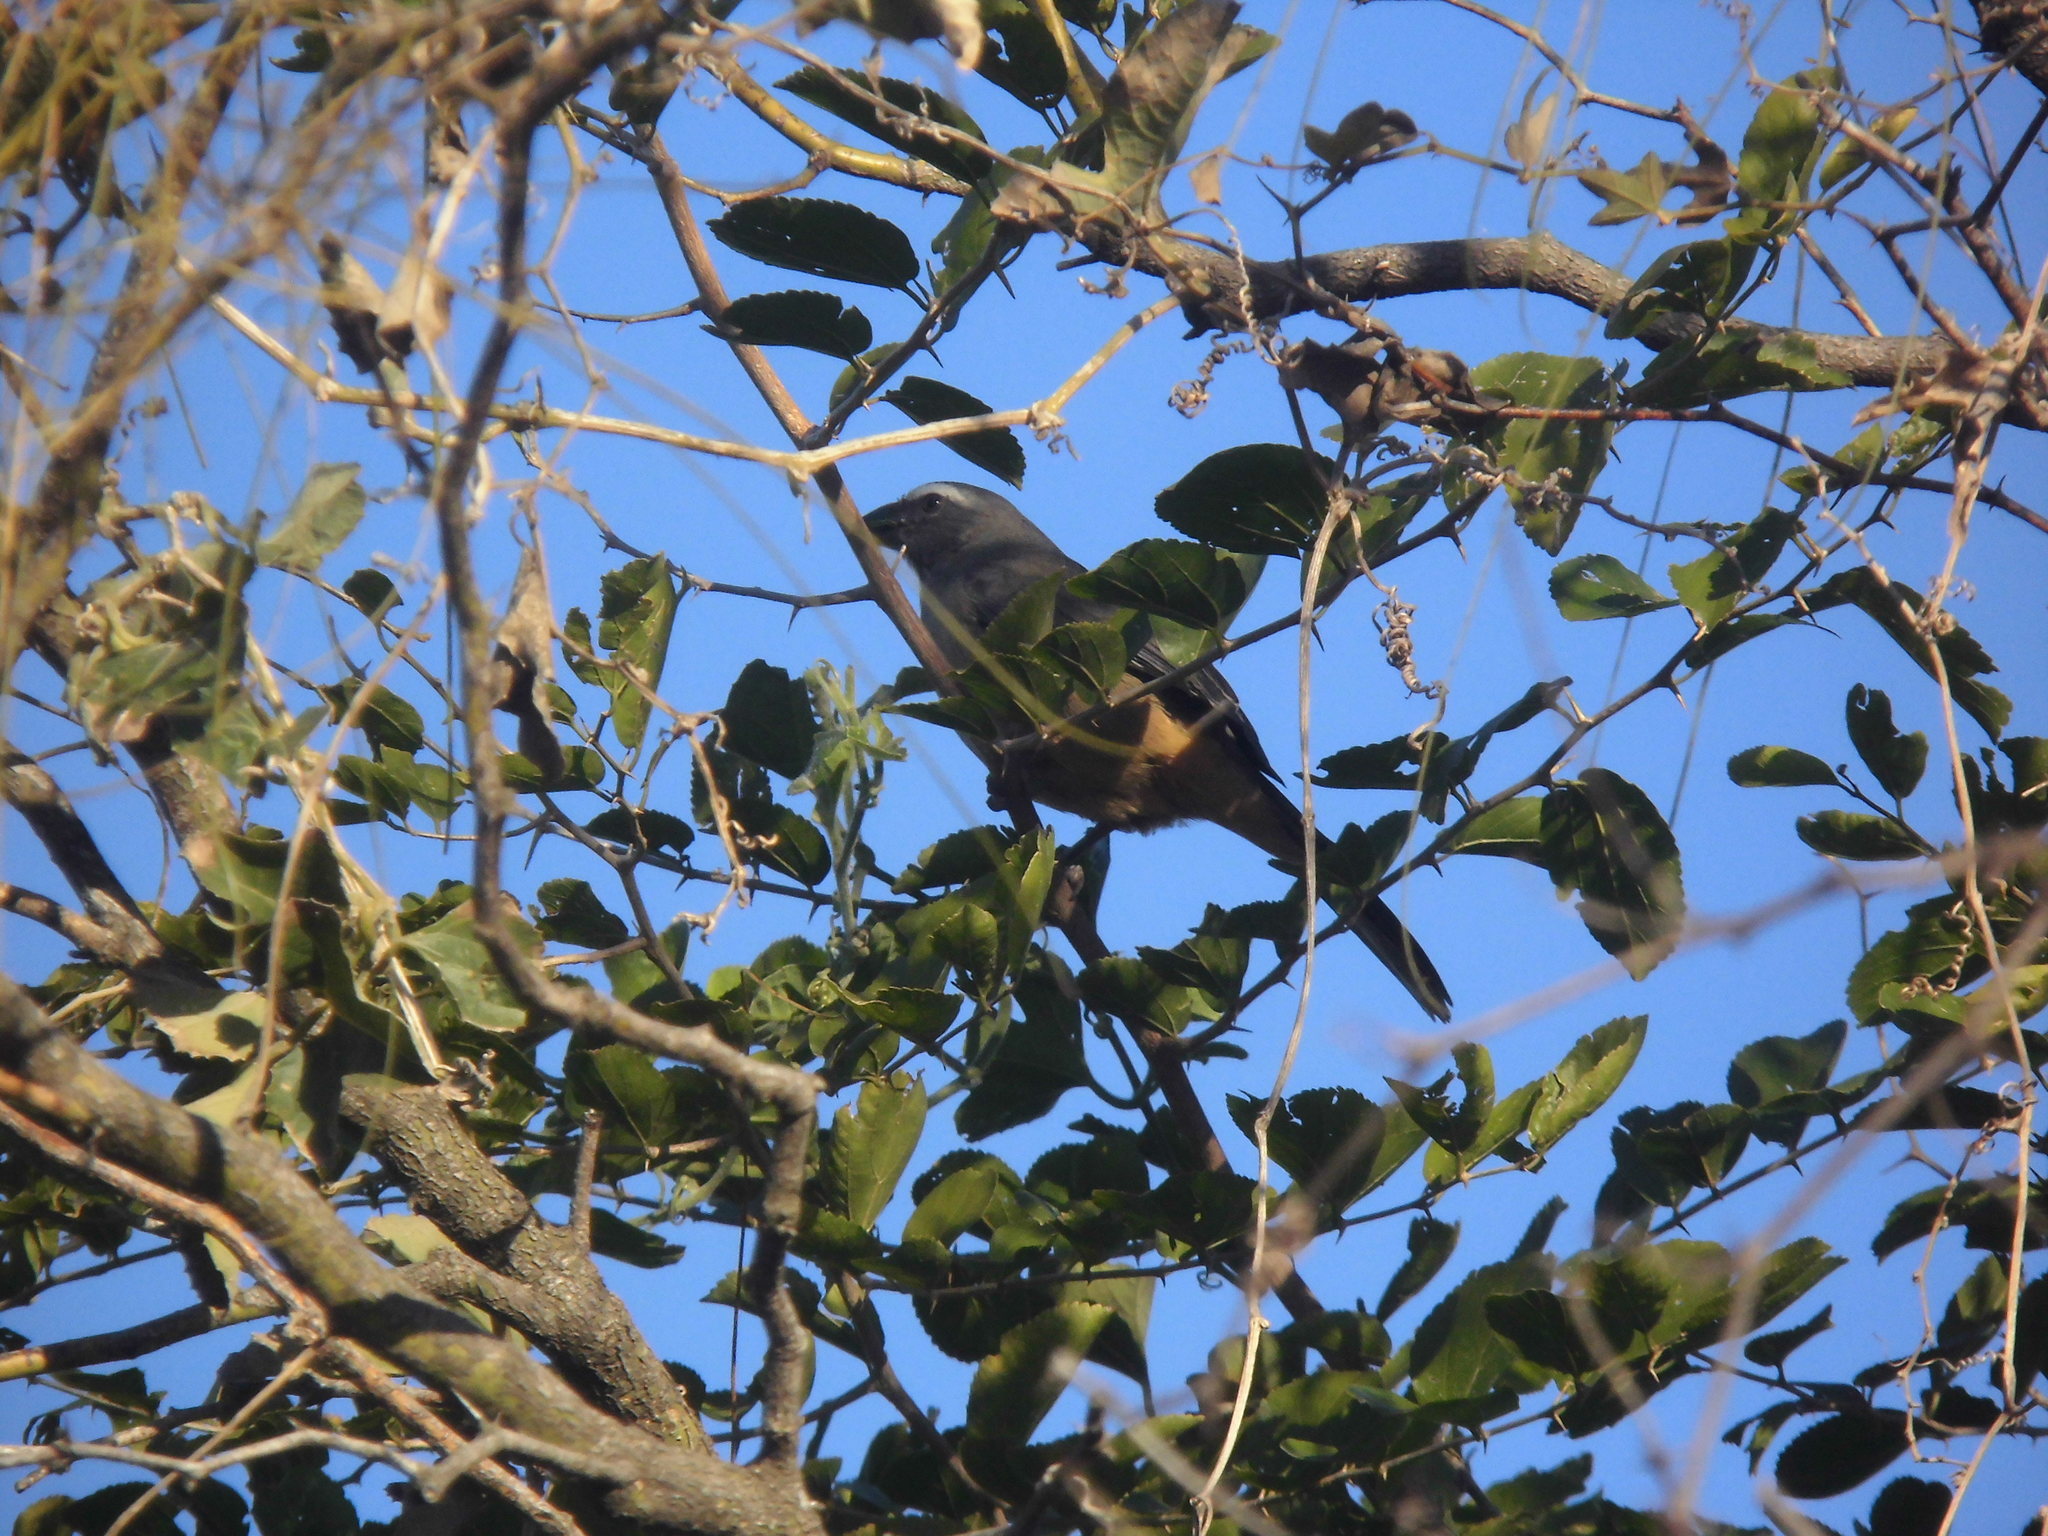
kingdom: Animalia
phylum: Chordata
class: Aves
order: Passeriformes
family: Thraupidae
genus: Saltator
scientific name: Saltator coerulescens
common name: Grayish saltator
